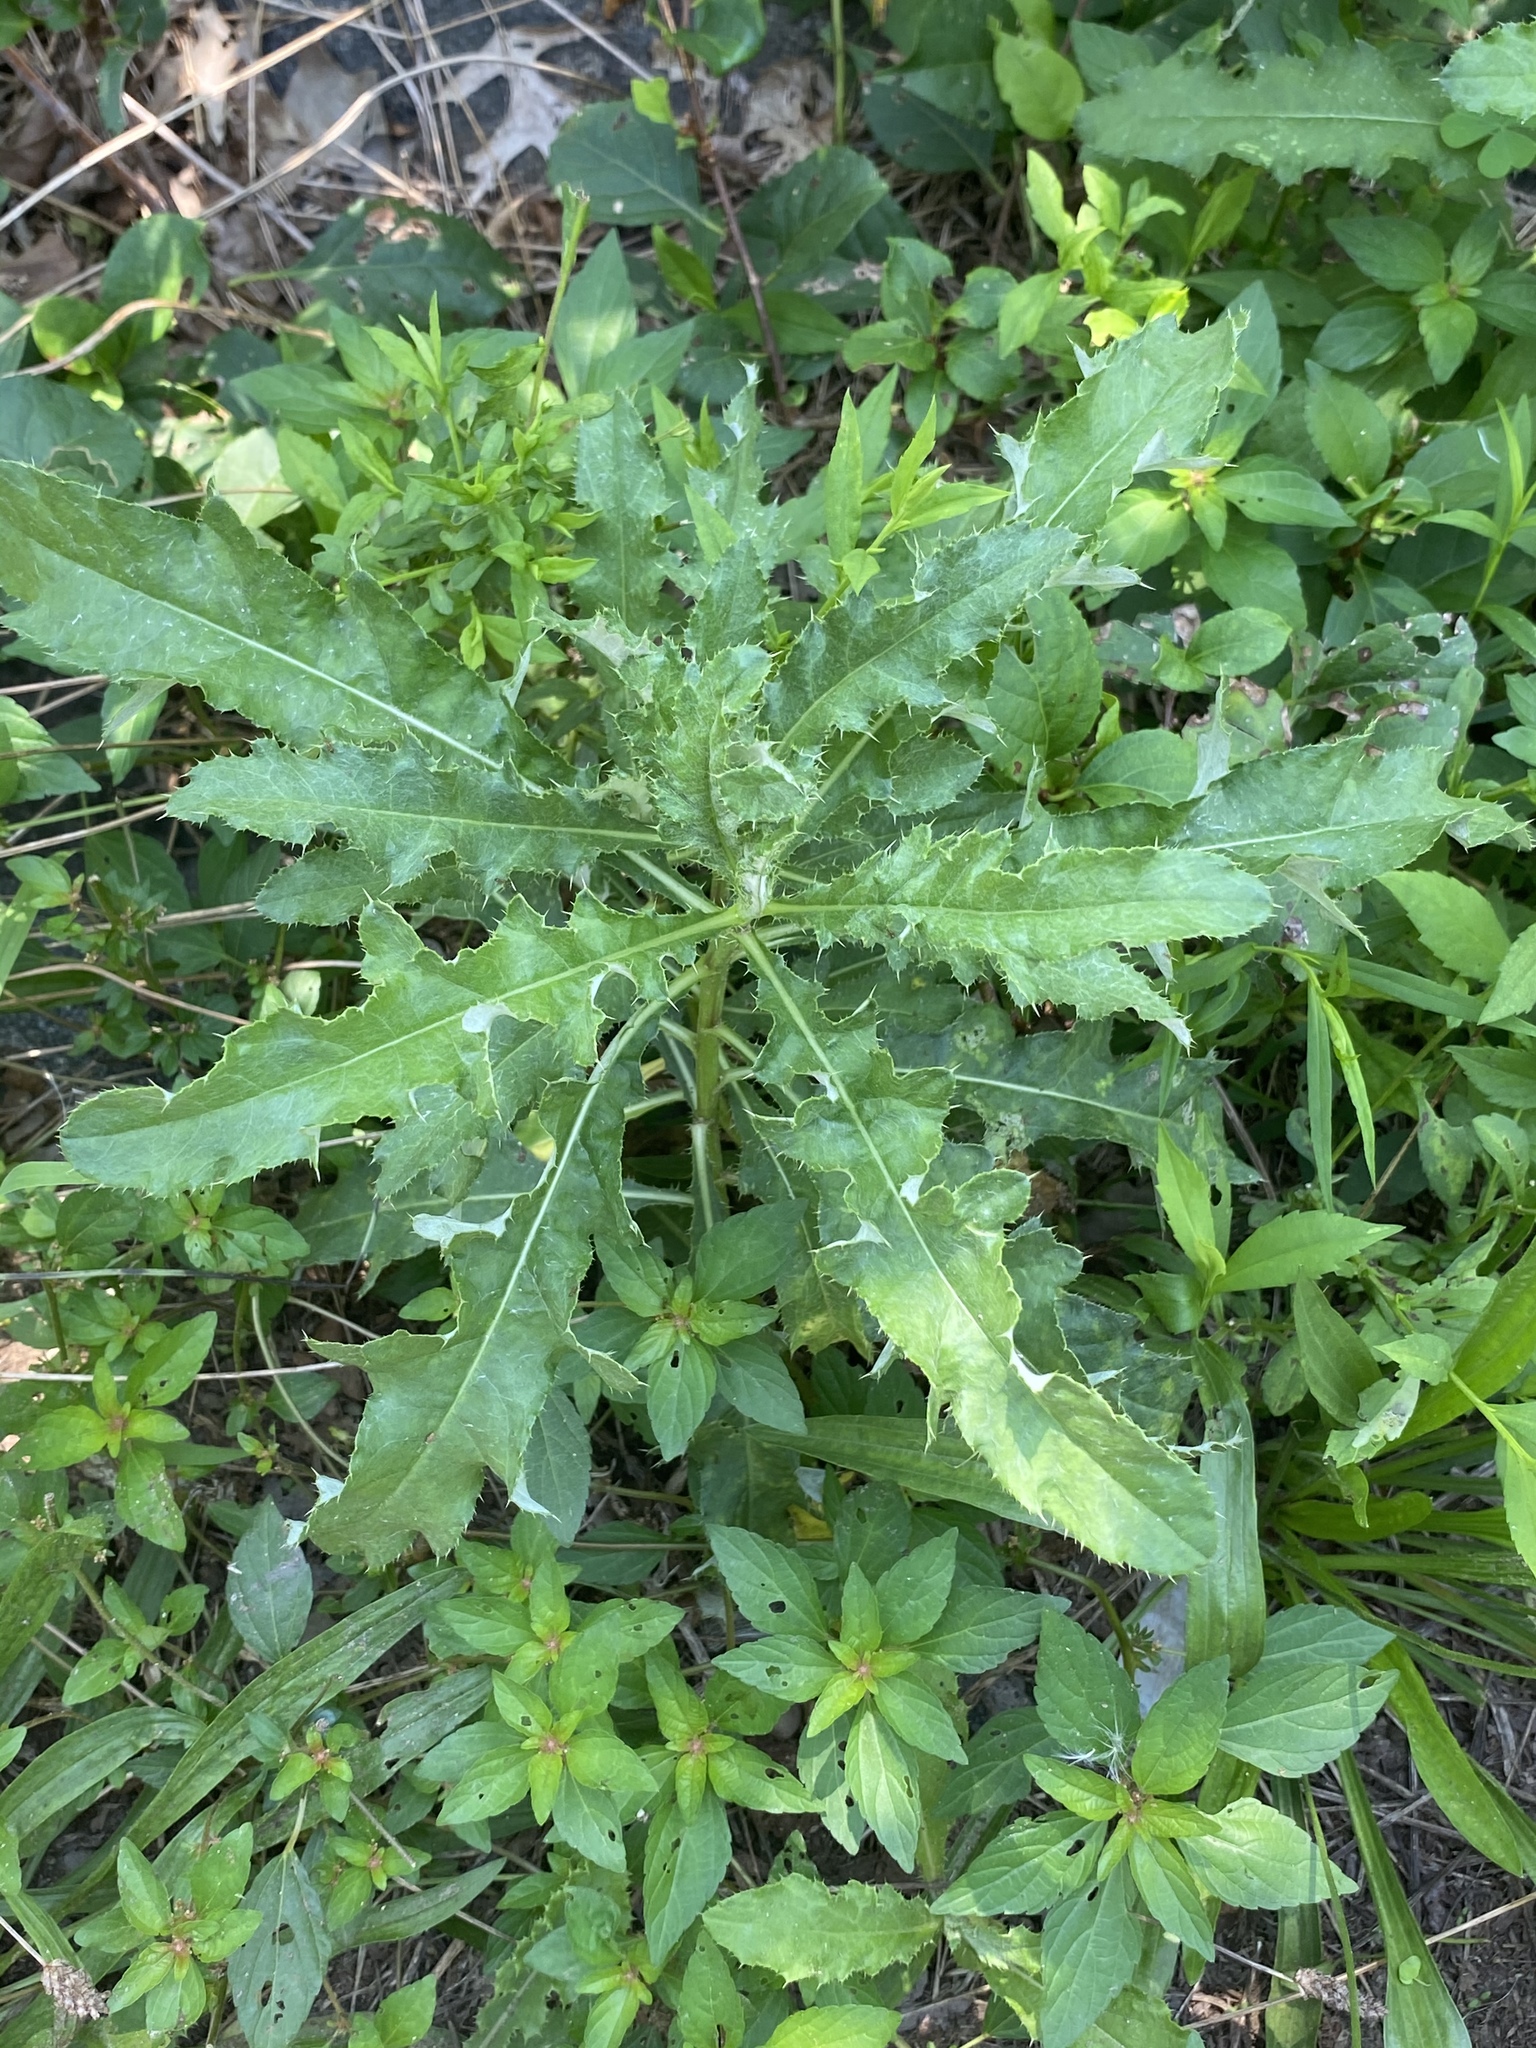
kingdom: Plantae
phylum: Tracheophyta
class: Magnoliopsida
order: Asterales
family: Asteraceae
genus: Cirsium
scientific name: Cirsium arvense
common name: Creeping thistle
